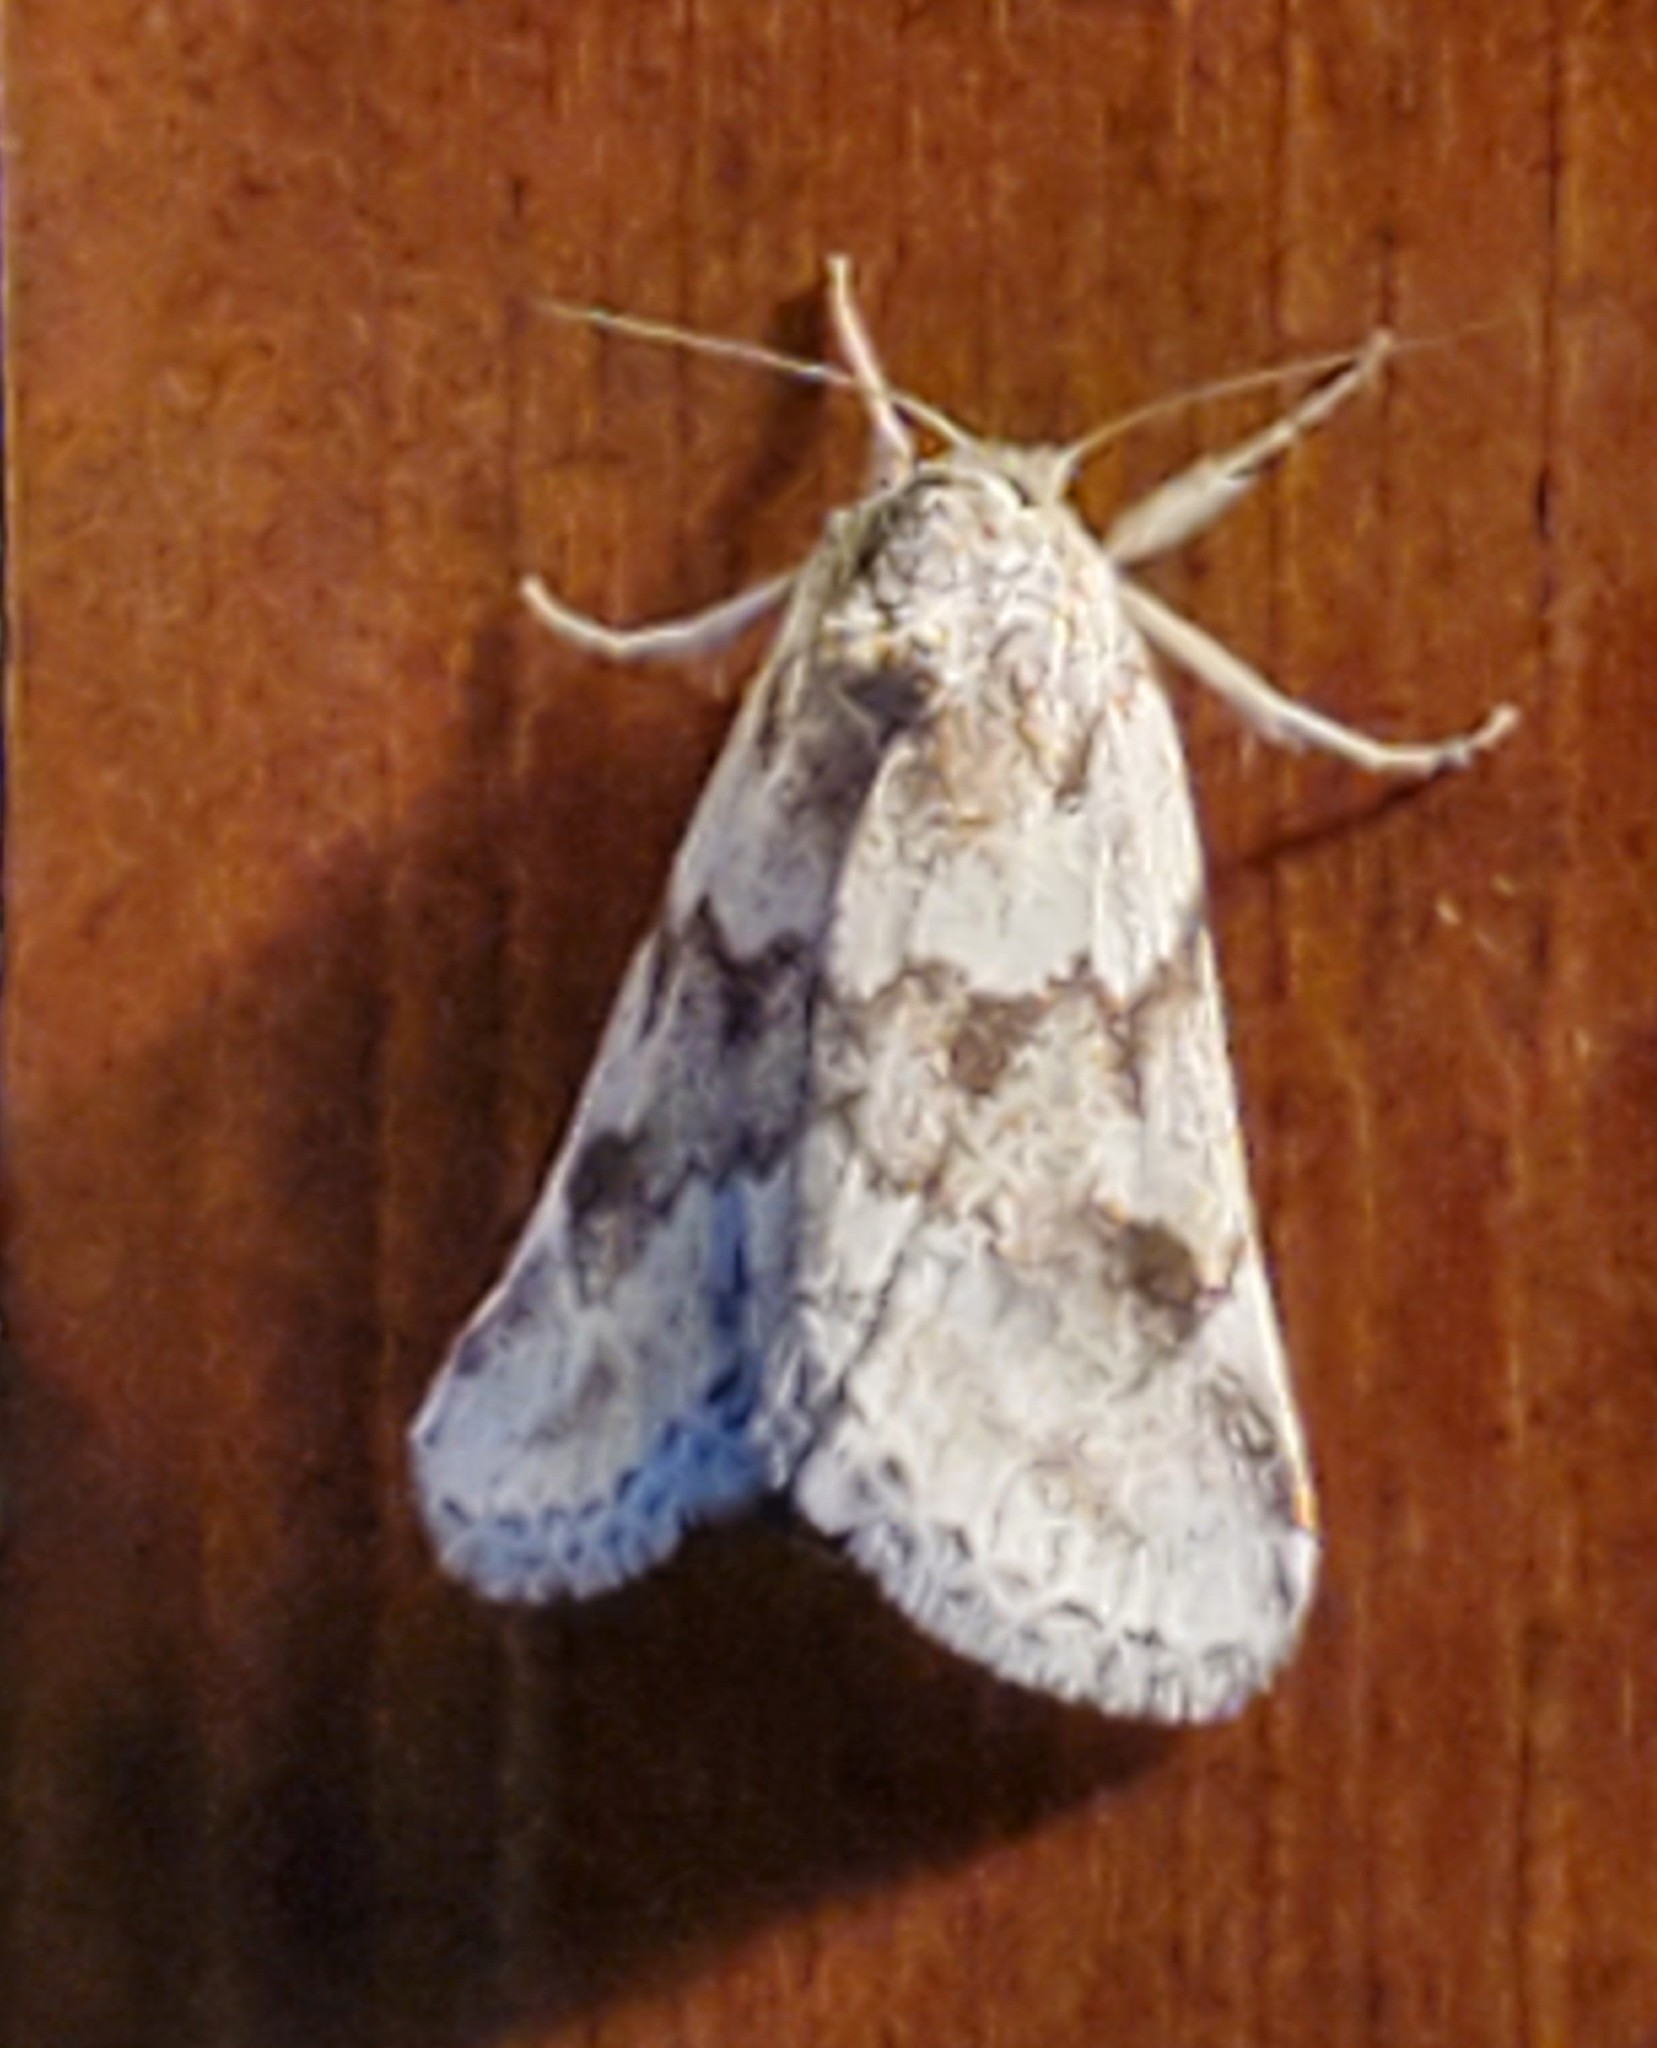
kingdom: Animalia
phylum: Arthropoda
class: Insecta
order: Lepidoptera
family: Noctuidae
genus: Acopa
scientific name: Acopa carina
